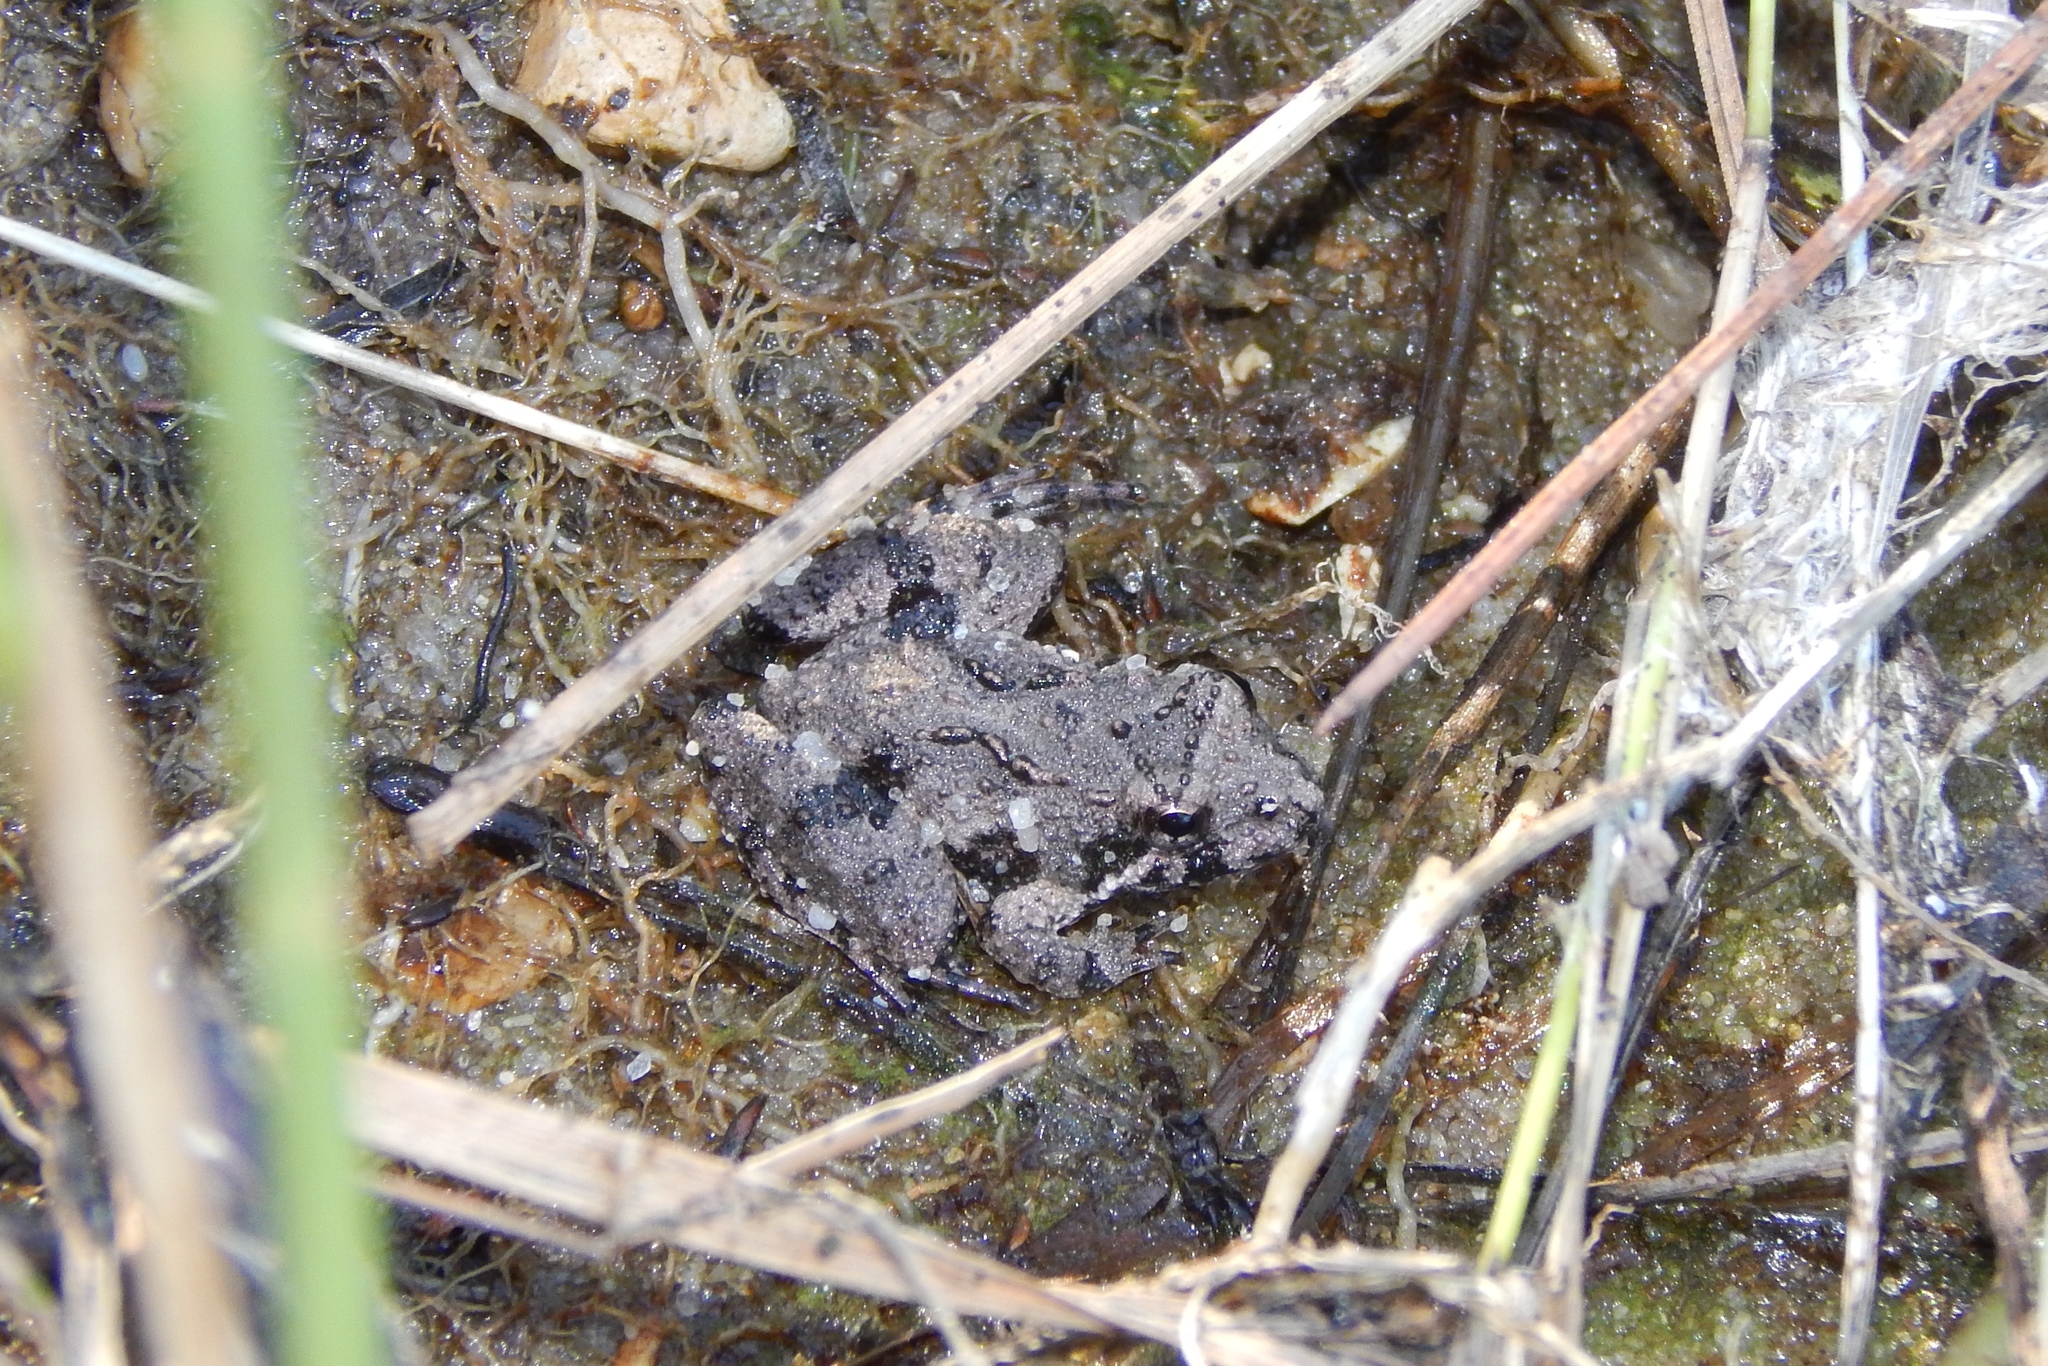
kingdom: Animalia
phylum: Chordata
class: Amphibia
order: Anura
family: Hylidae
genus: Acris
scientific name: Acris crepitans
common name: Northern cricket frog
